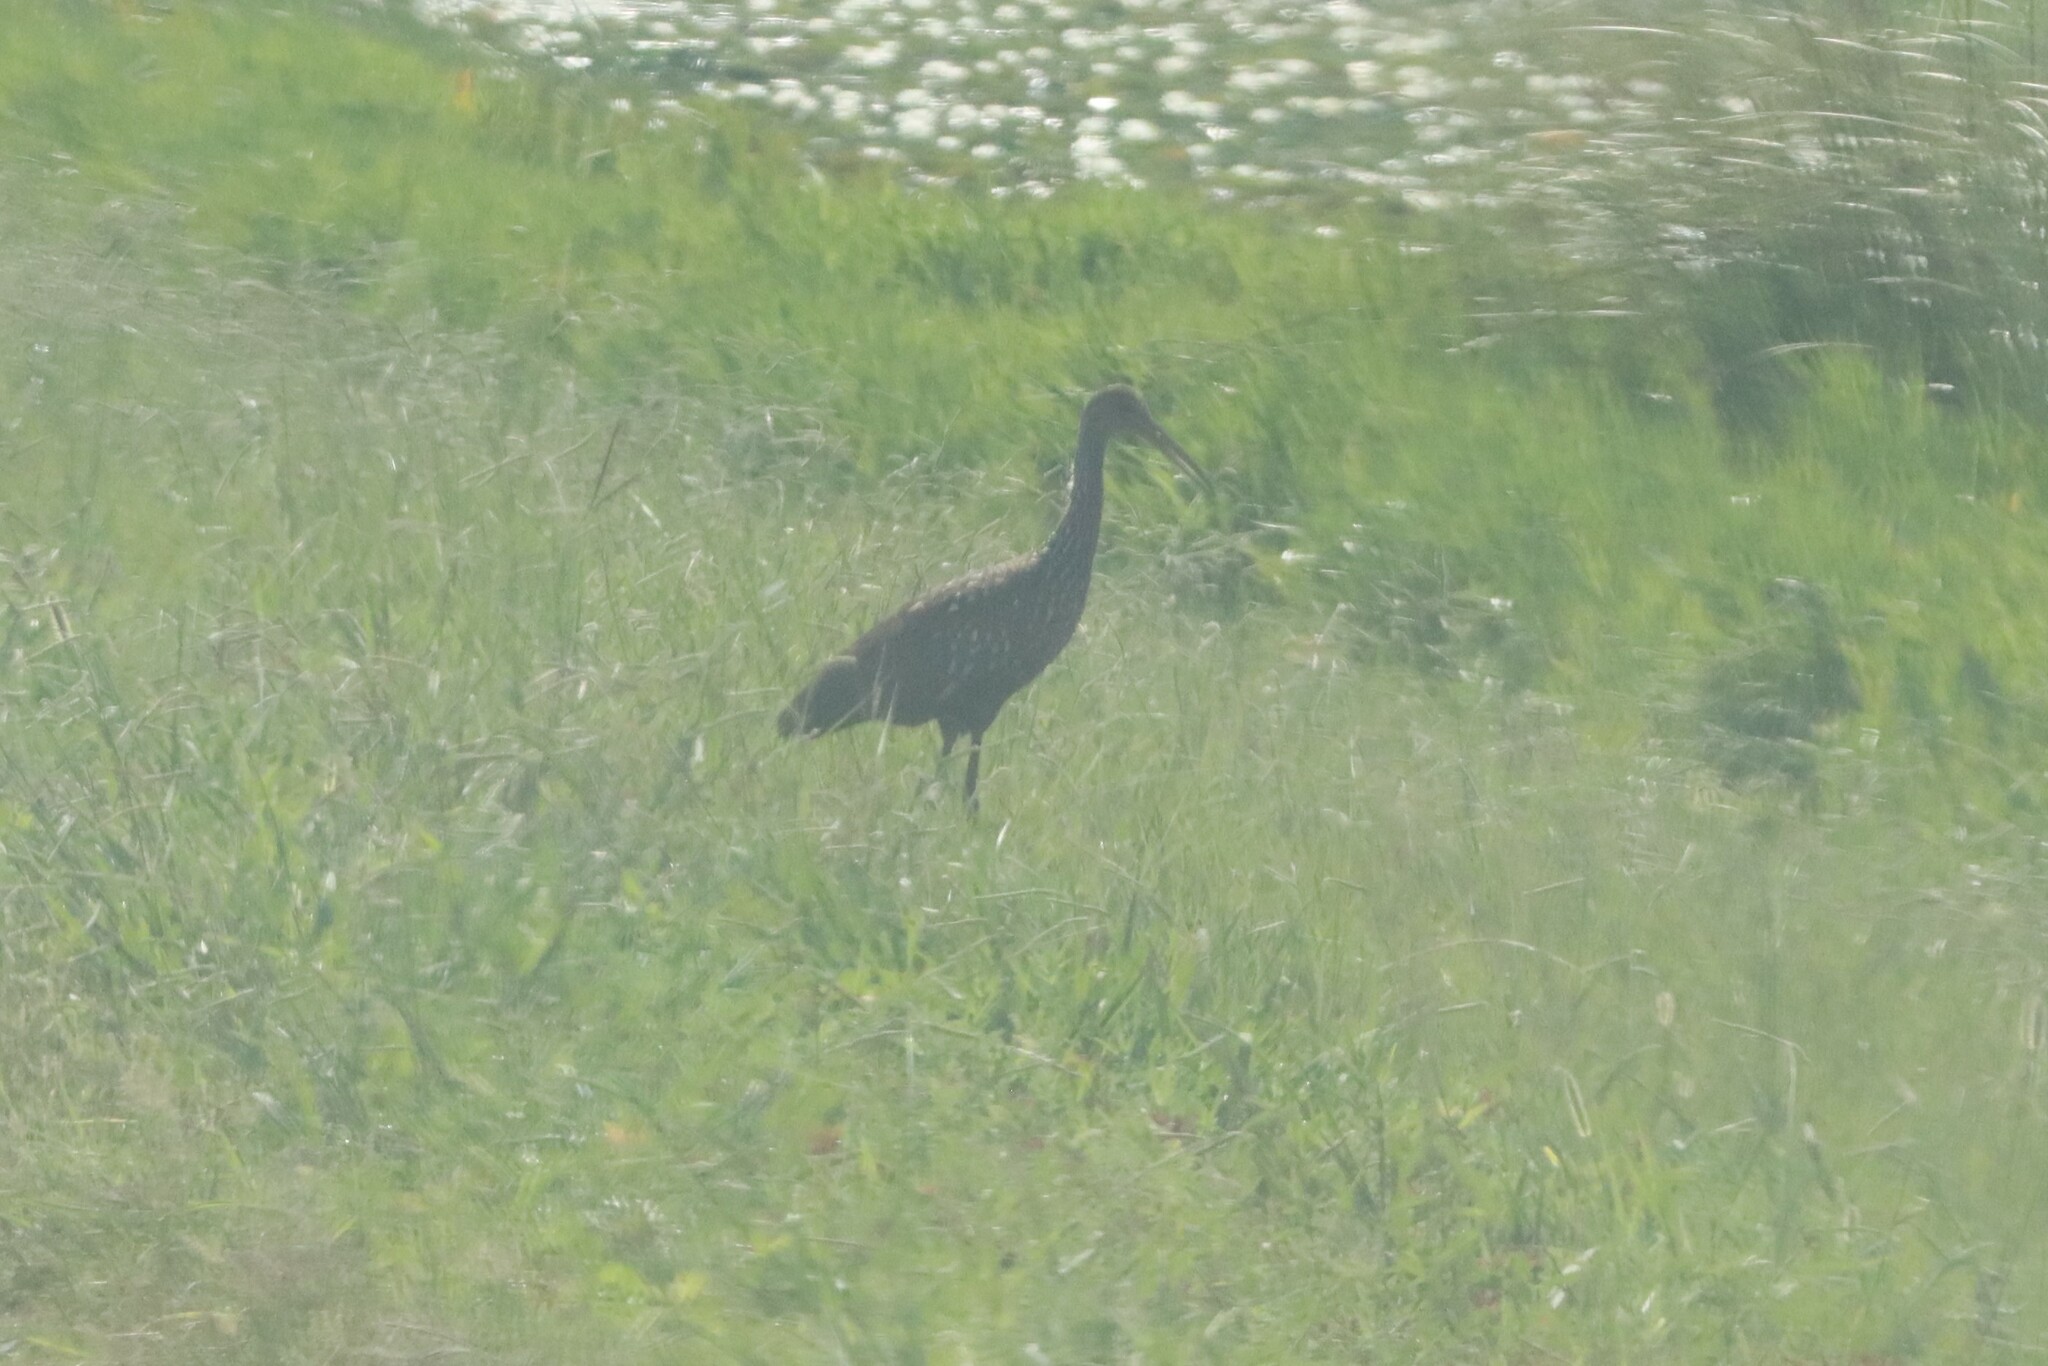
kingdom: Animalia
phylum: Chordata
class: Aves
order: Gruiformes
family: Aramidae
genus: Aramus
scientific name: Aramus guarauna
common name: Limpkin
